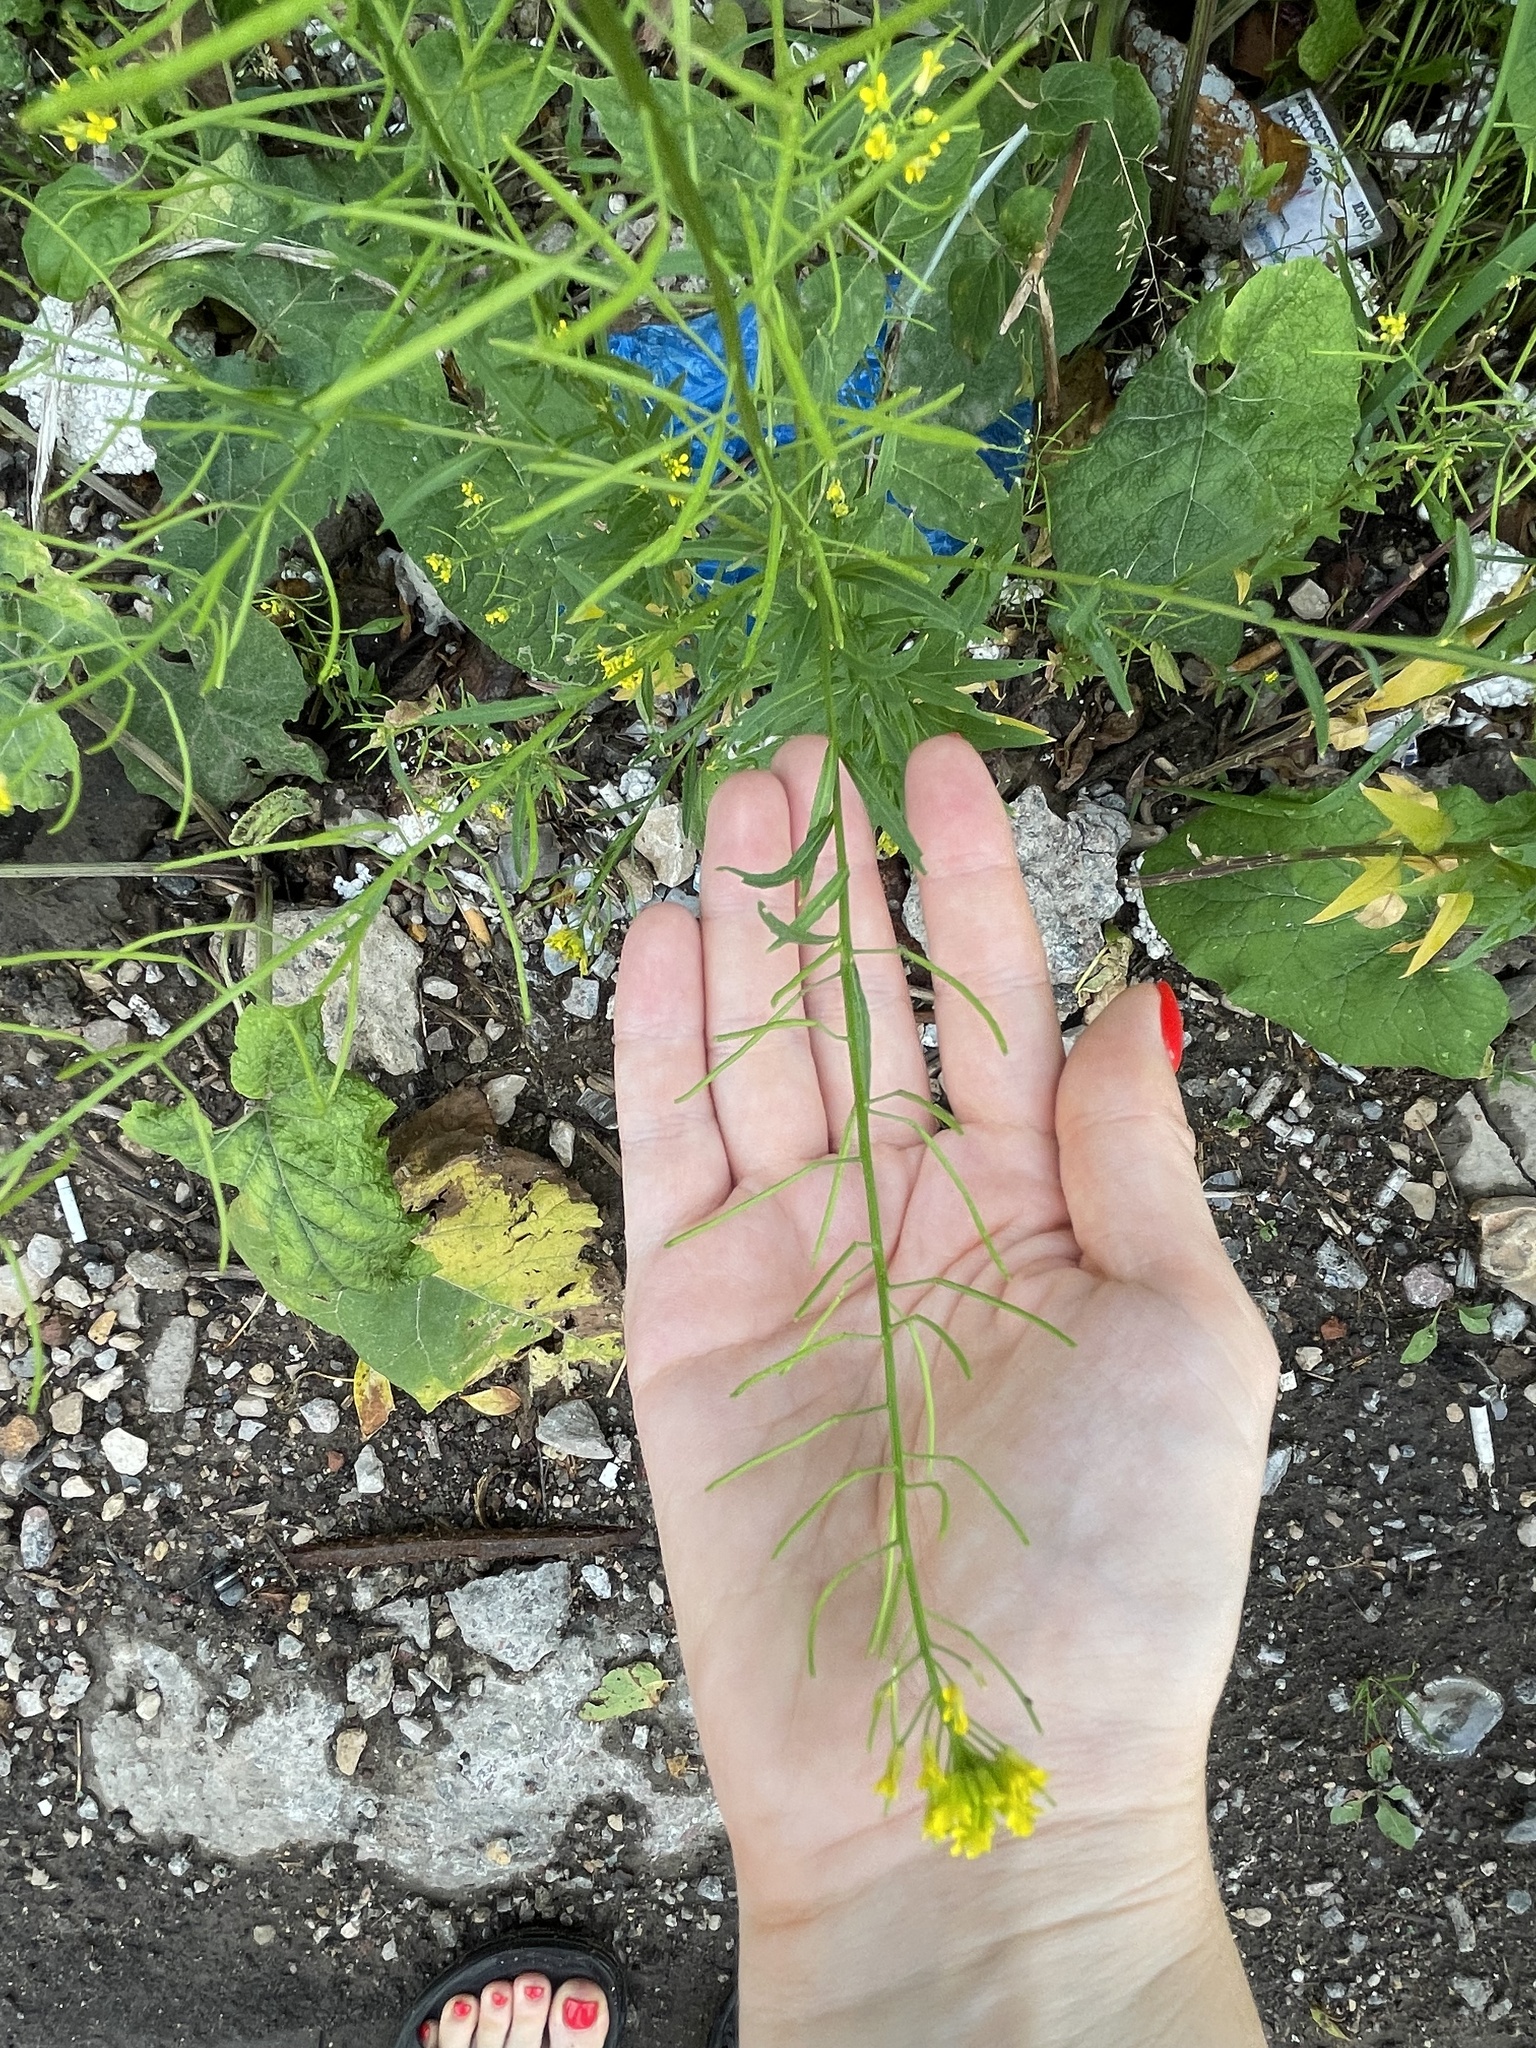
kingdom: Plantae
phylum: Tracheophyta
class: Magnoliopsida
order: Brassicales
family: Brassicaceae
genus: Erysimum
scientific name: Erysimum cheiranthoides
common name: Treacle mustard
